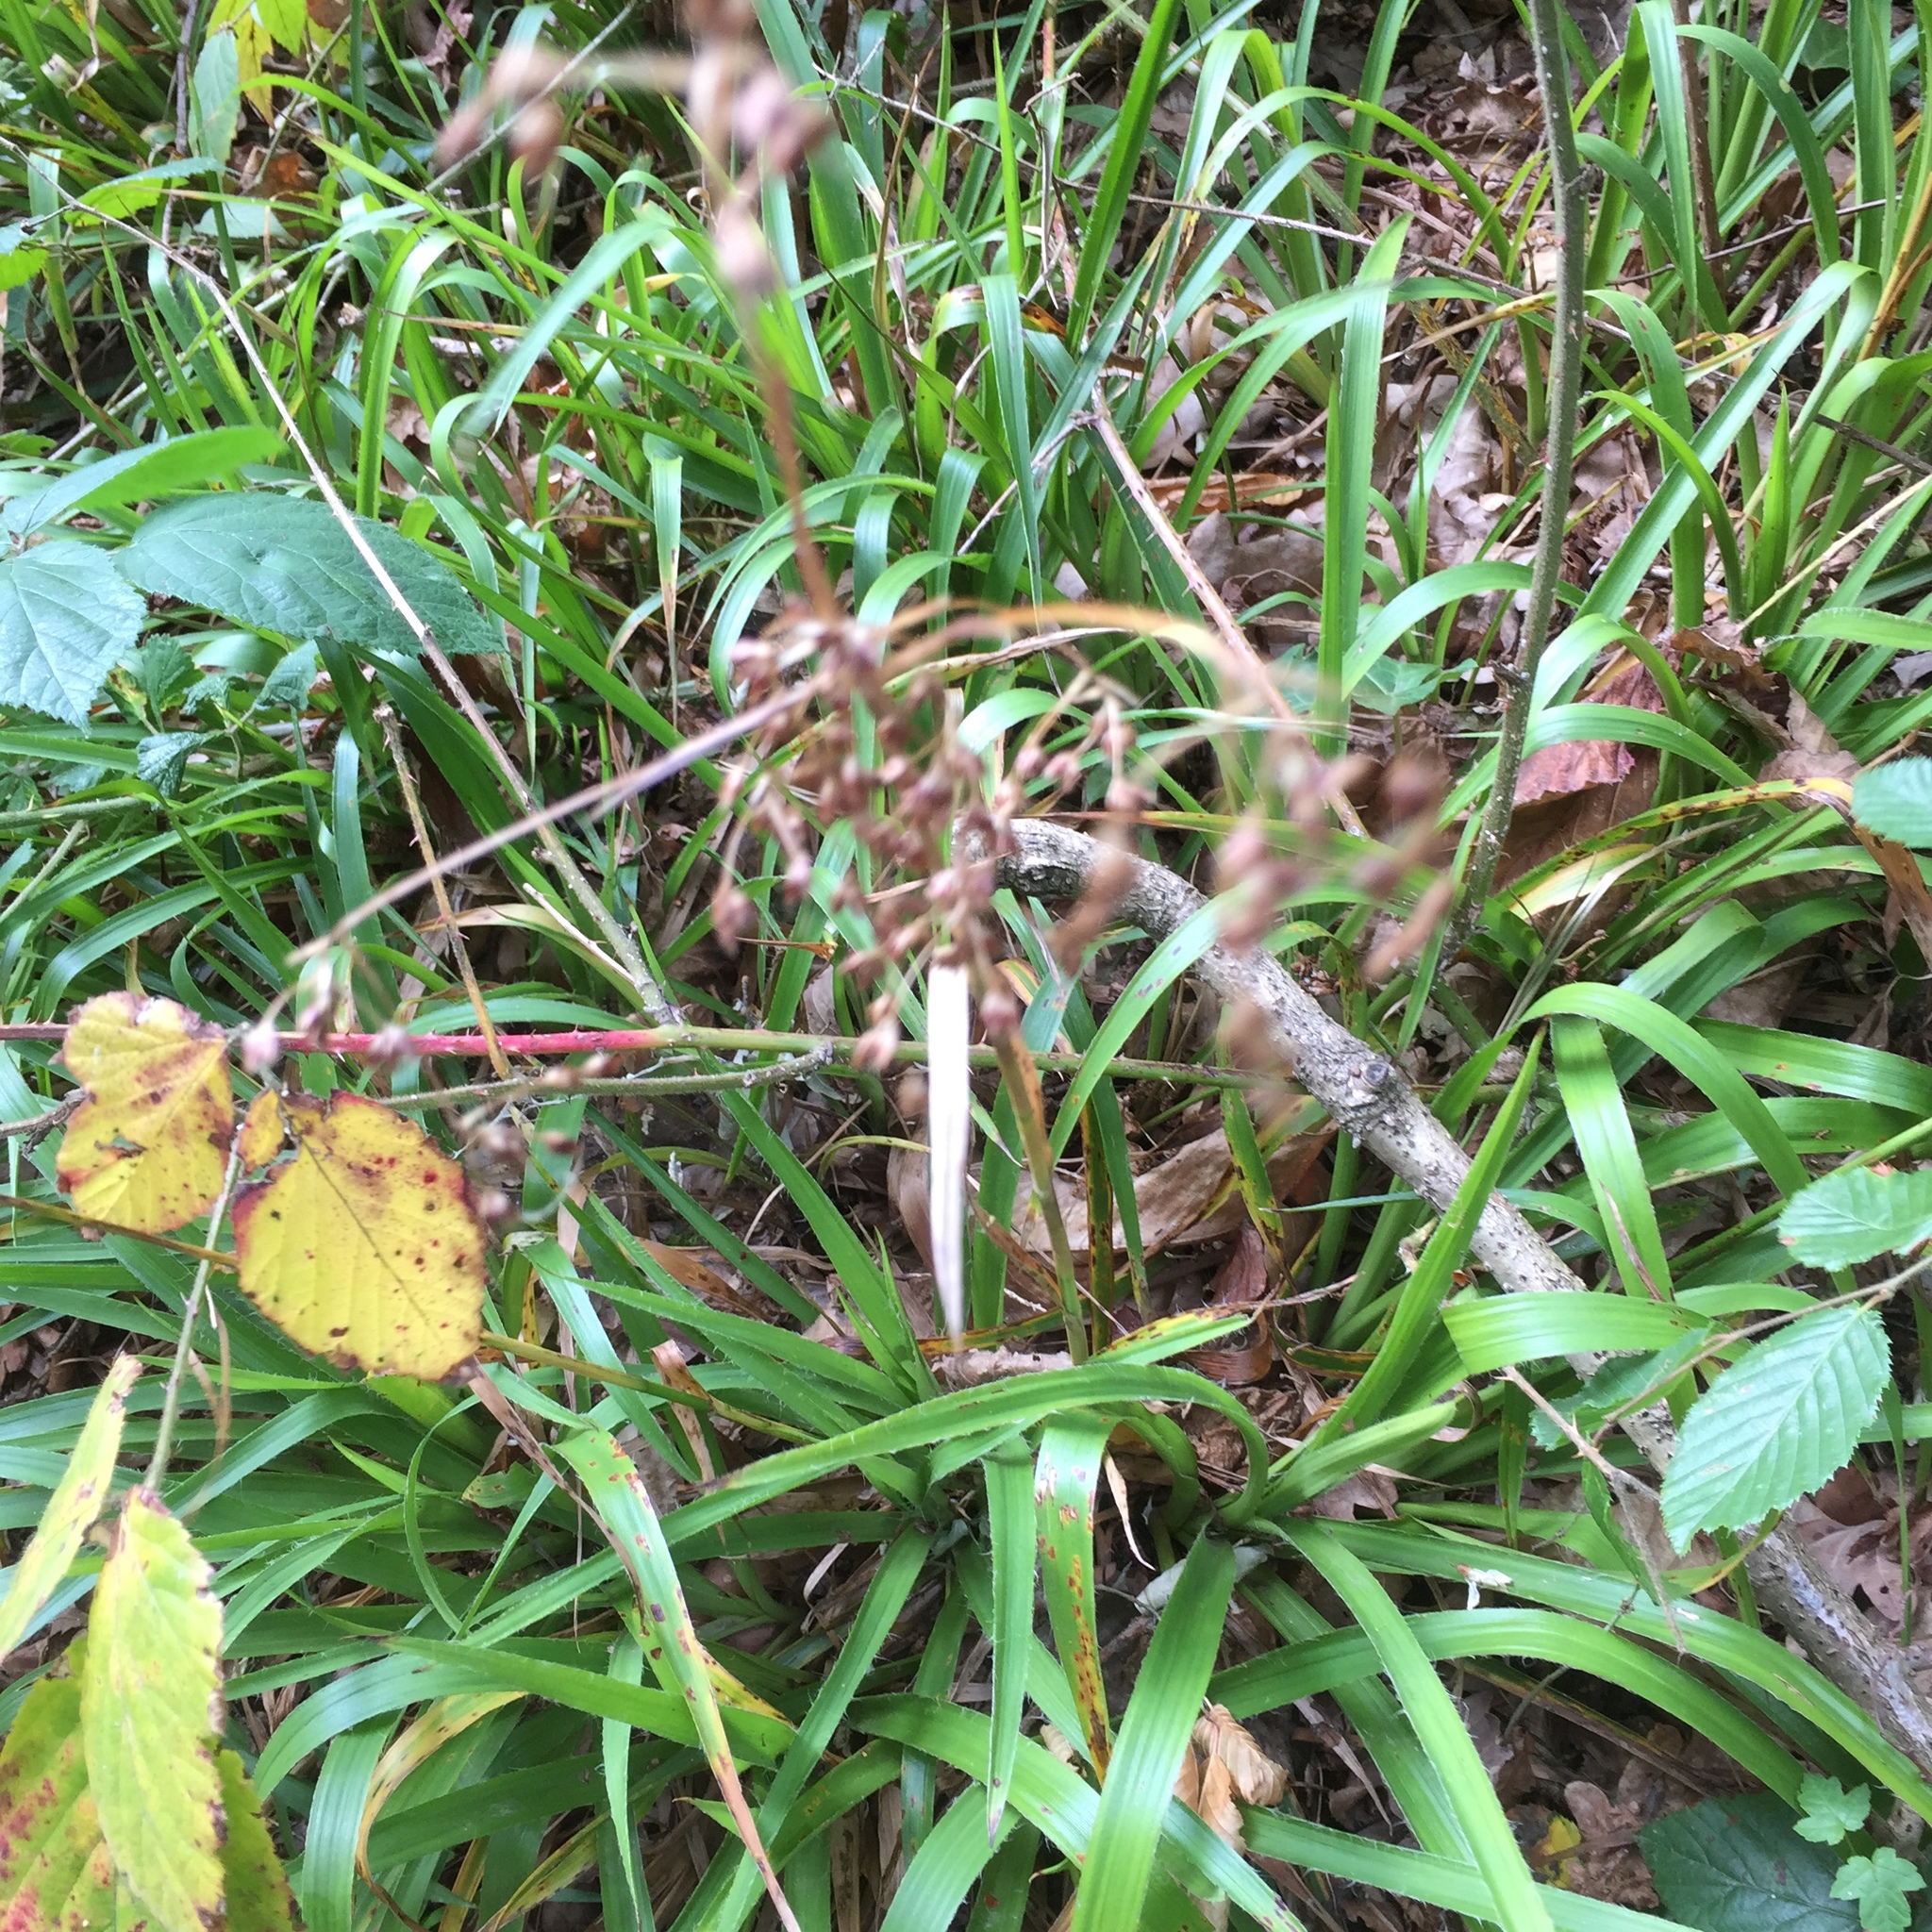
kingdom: Plantae
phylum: Tracheophyta
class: Liliopsida
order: Poales
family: Juncaceae
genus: Luzula
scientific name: Luzula sylvatica
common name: Great wood-rush
